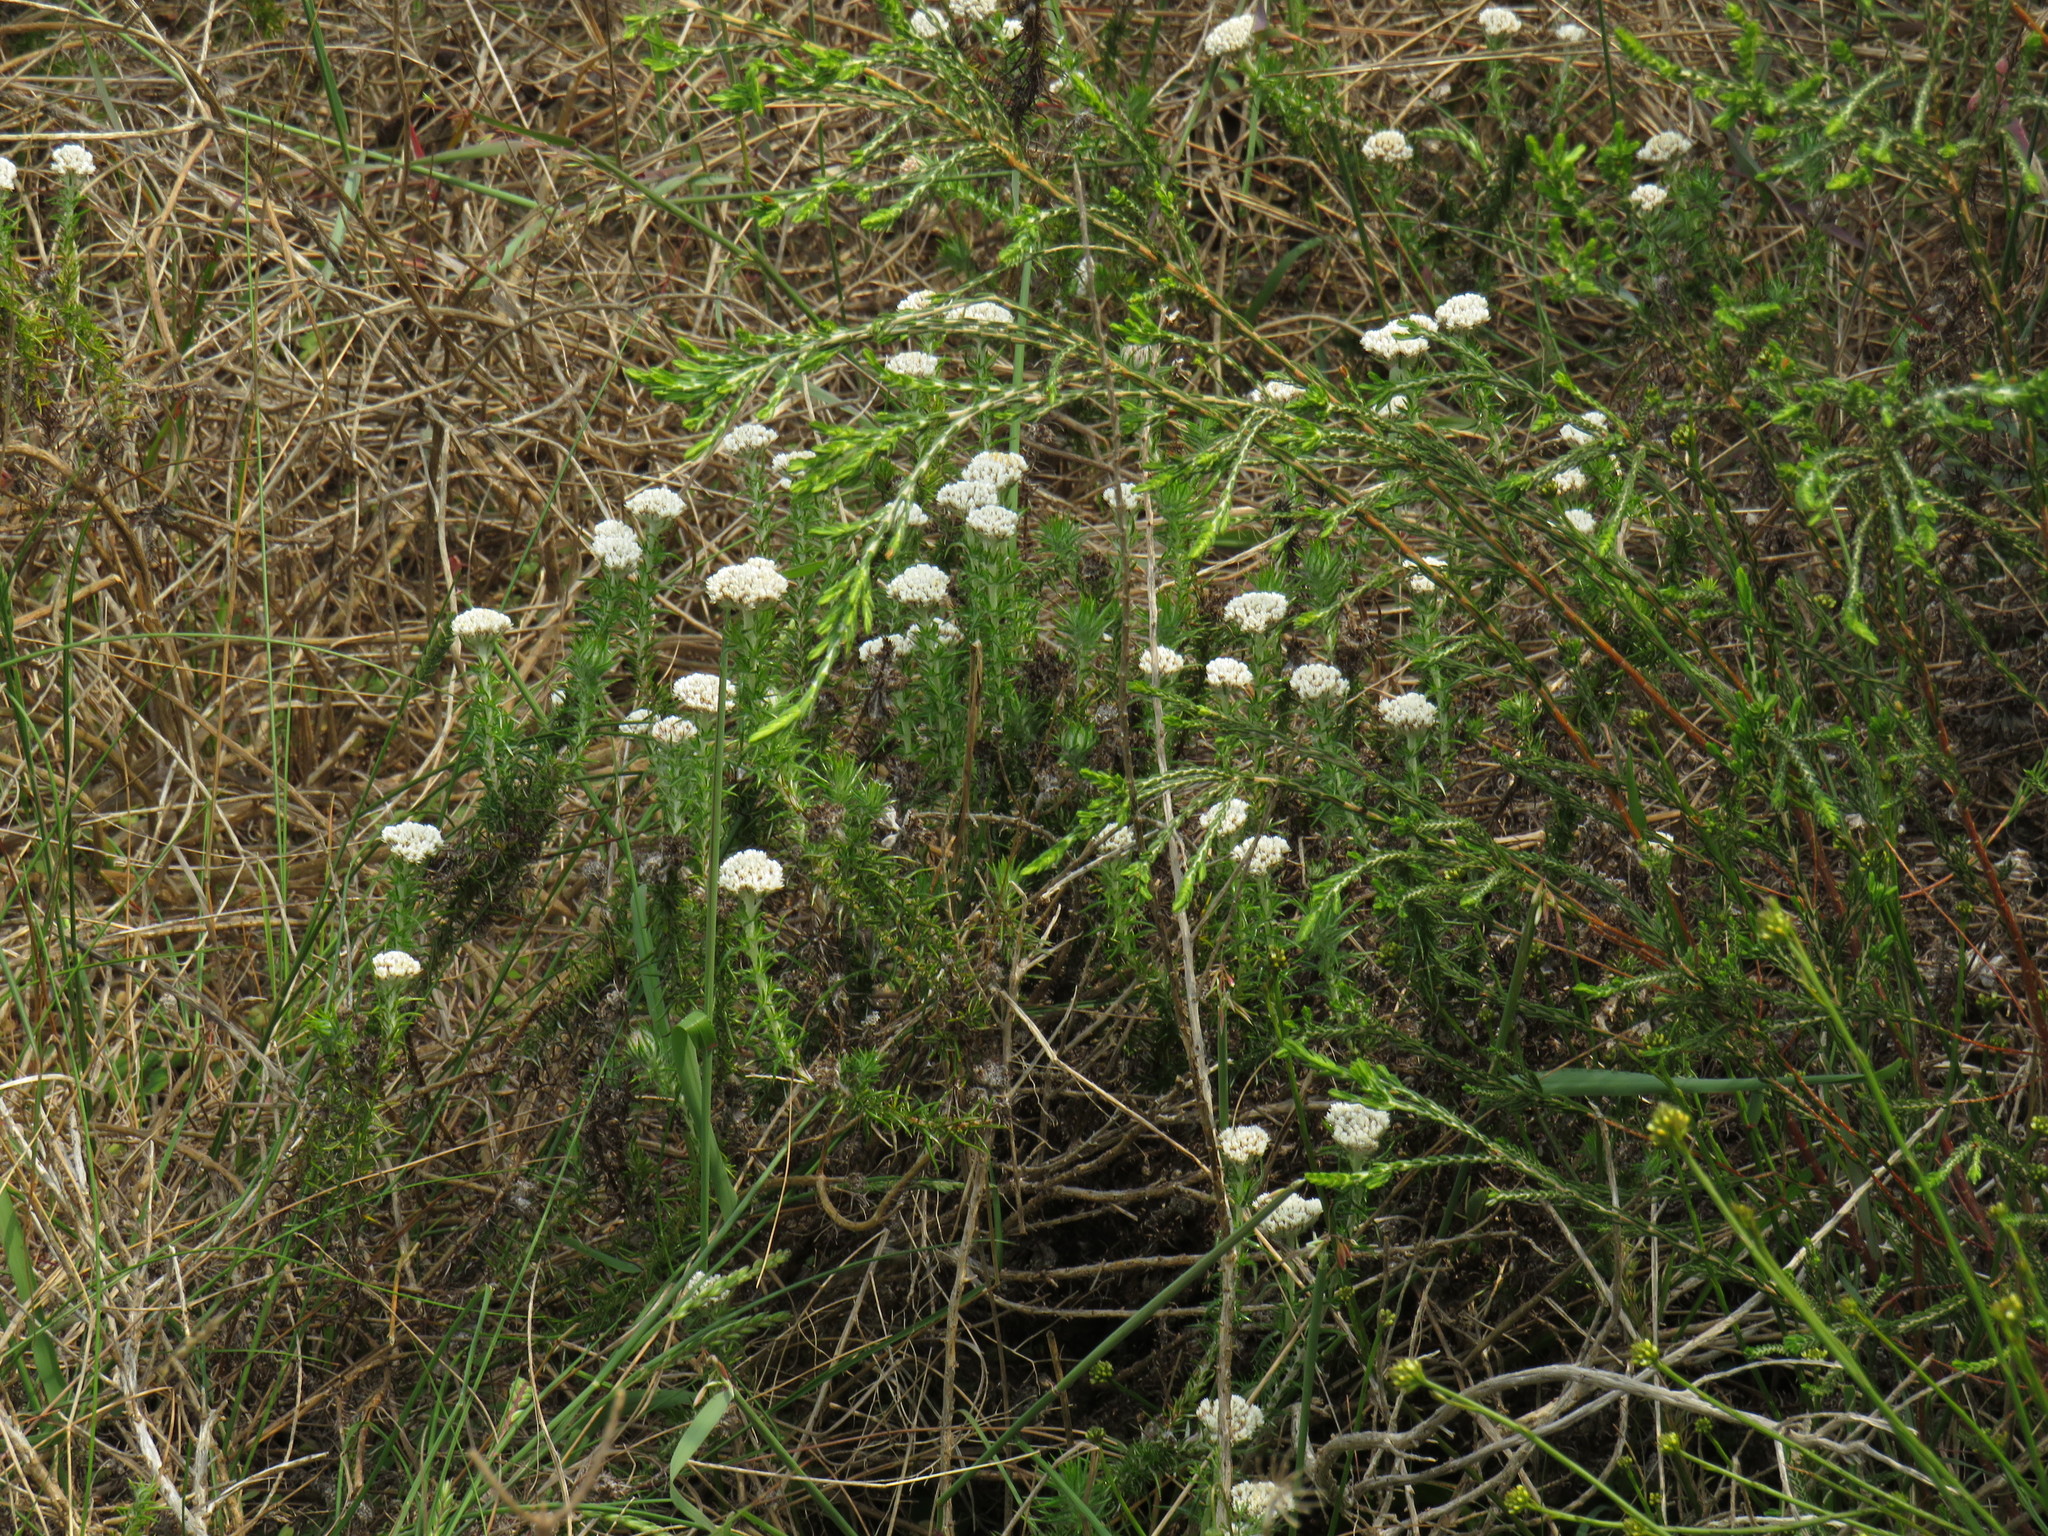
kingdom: Plantae
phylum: Tracheophyta
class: Magnoliopsida
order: Asterales
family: Asteraceae
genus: Metalasia
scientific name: Metalasia pulchella
